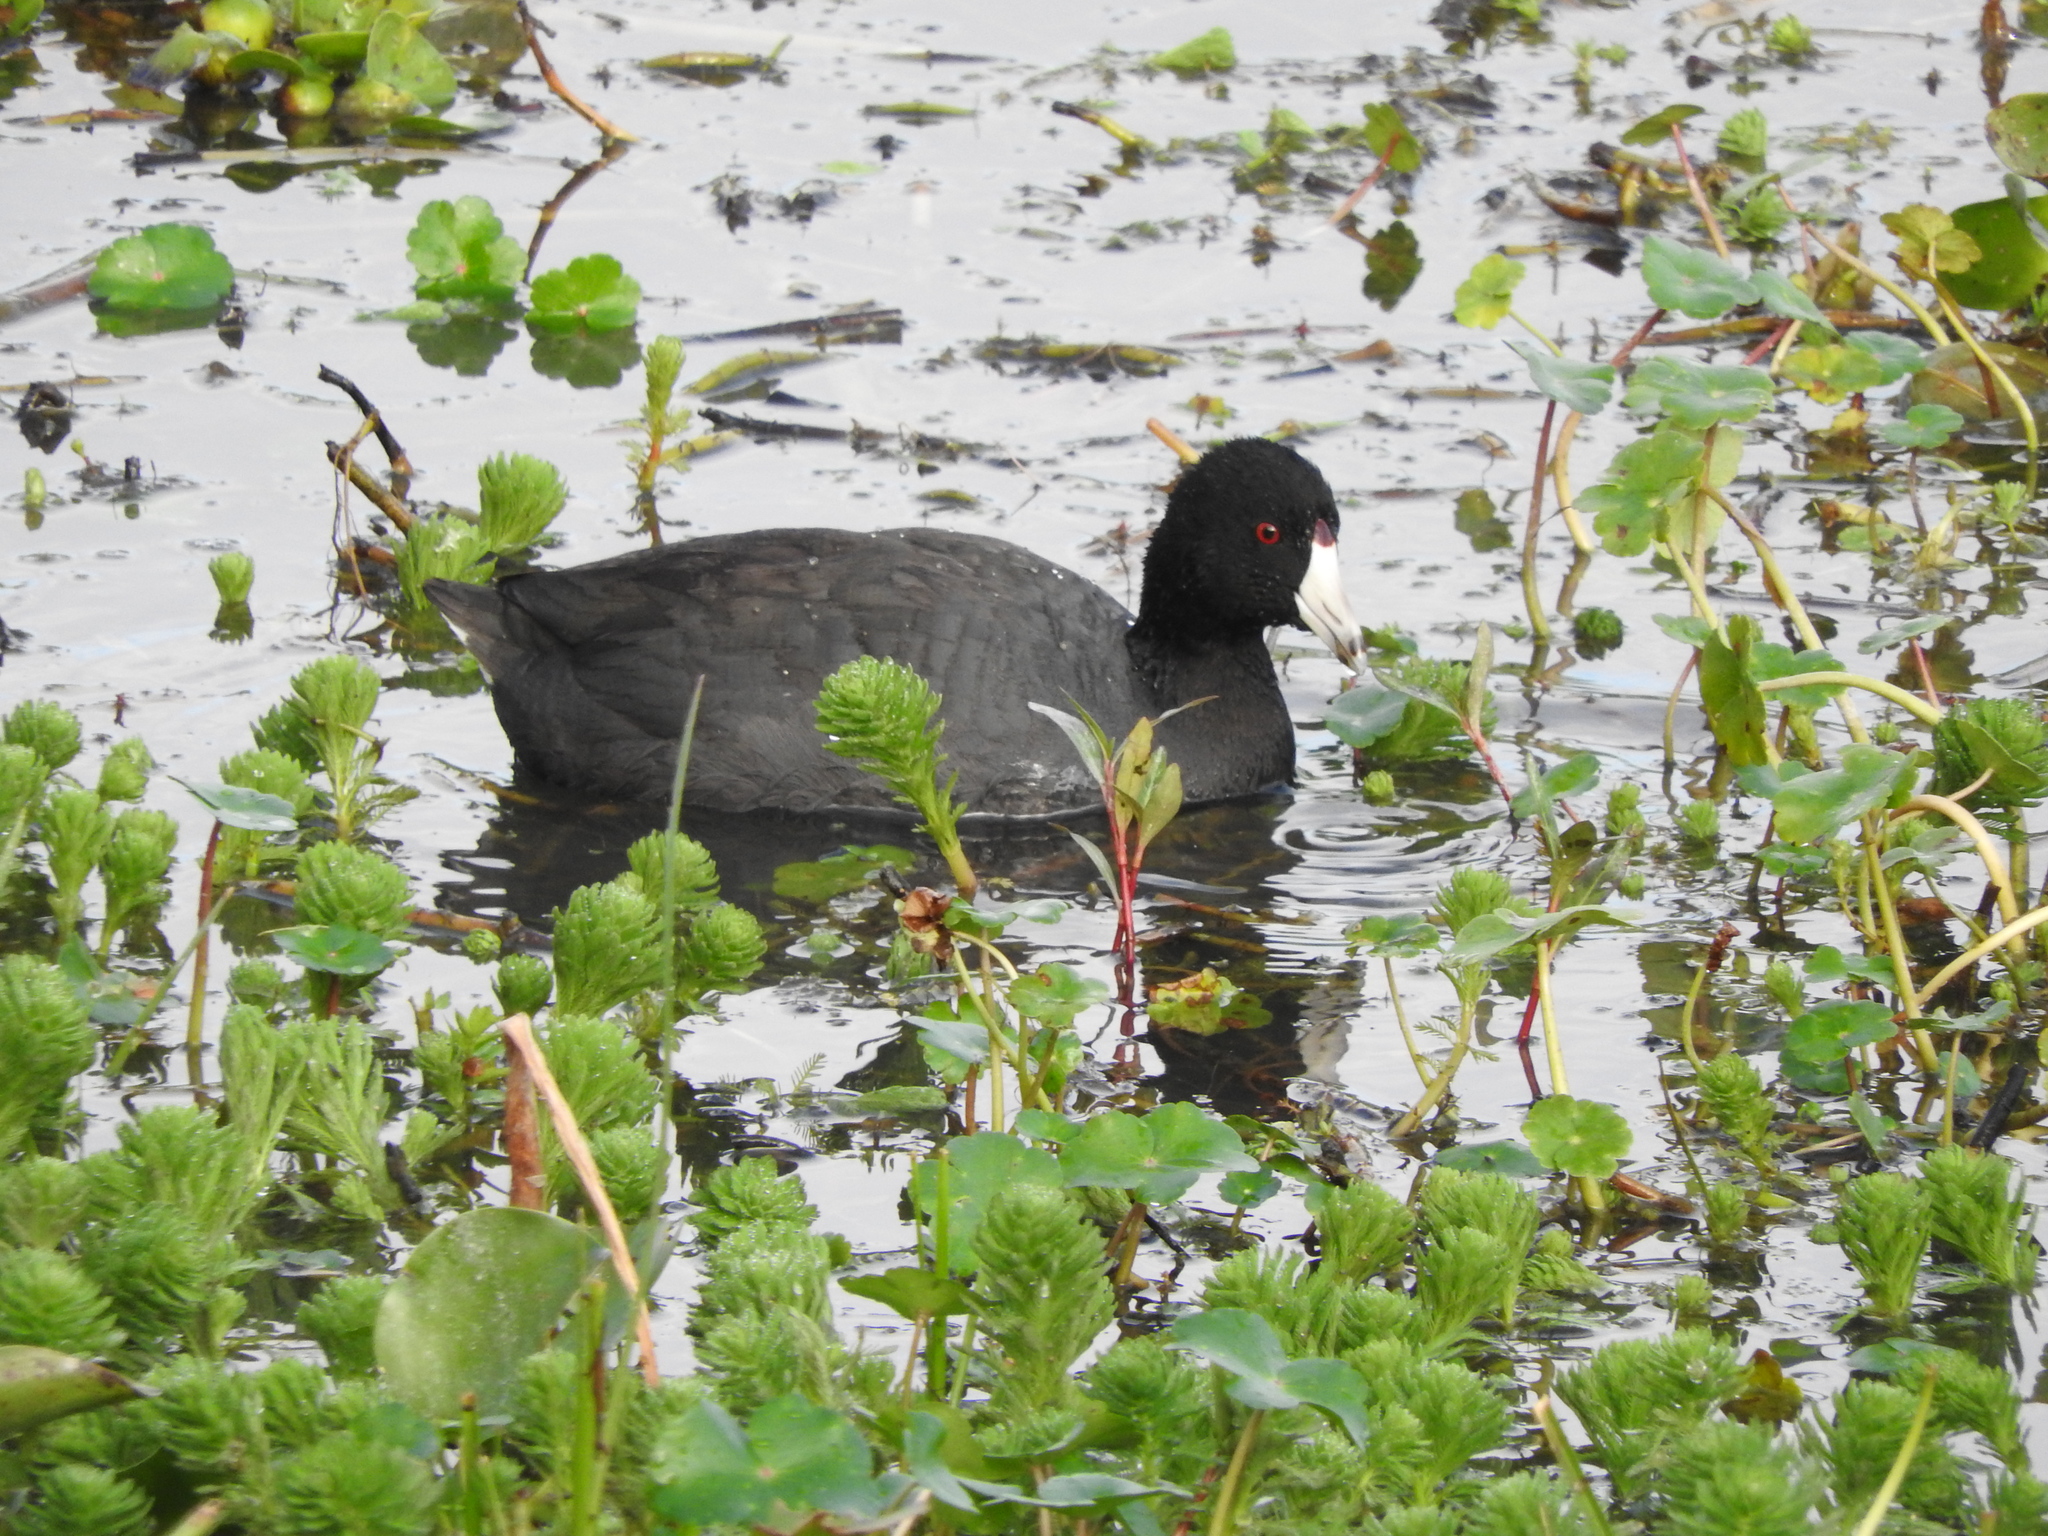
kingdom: Animalia
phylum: Chordata
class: Aves
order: Gruiformes
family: Rallidae
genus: Fulica
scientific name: Fulica americana
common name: American coot
